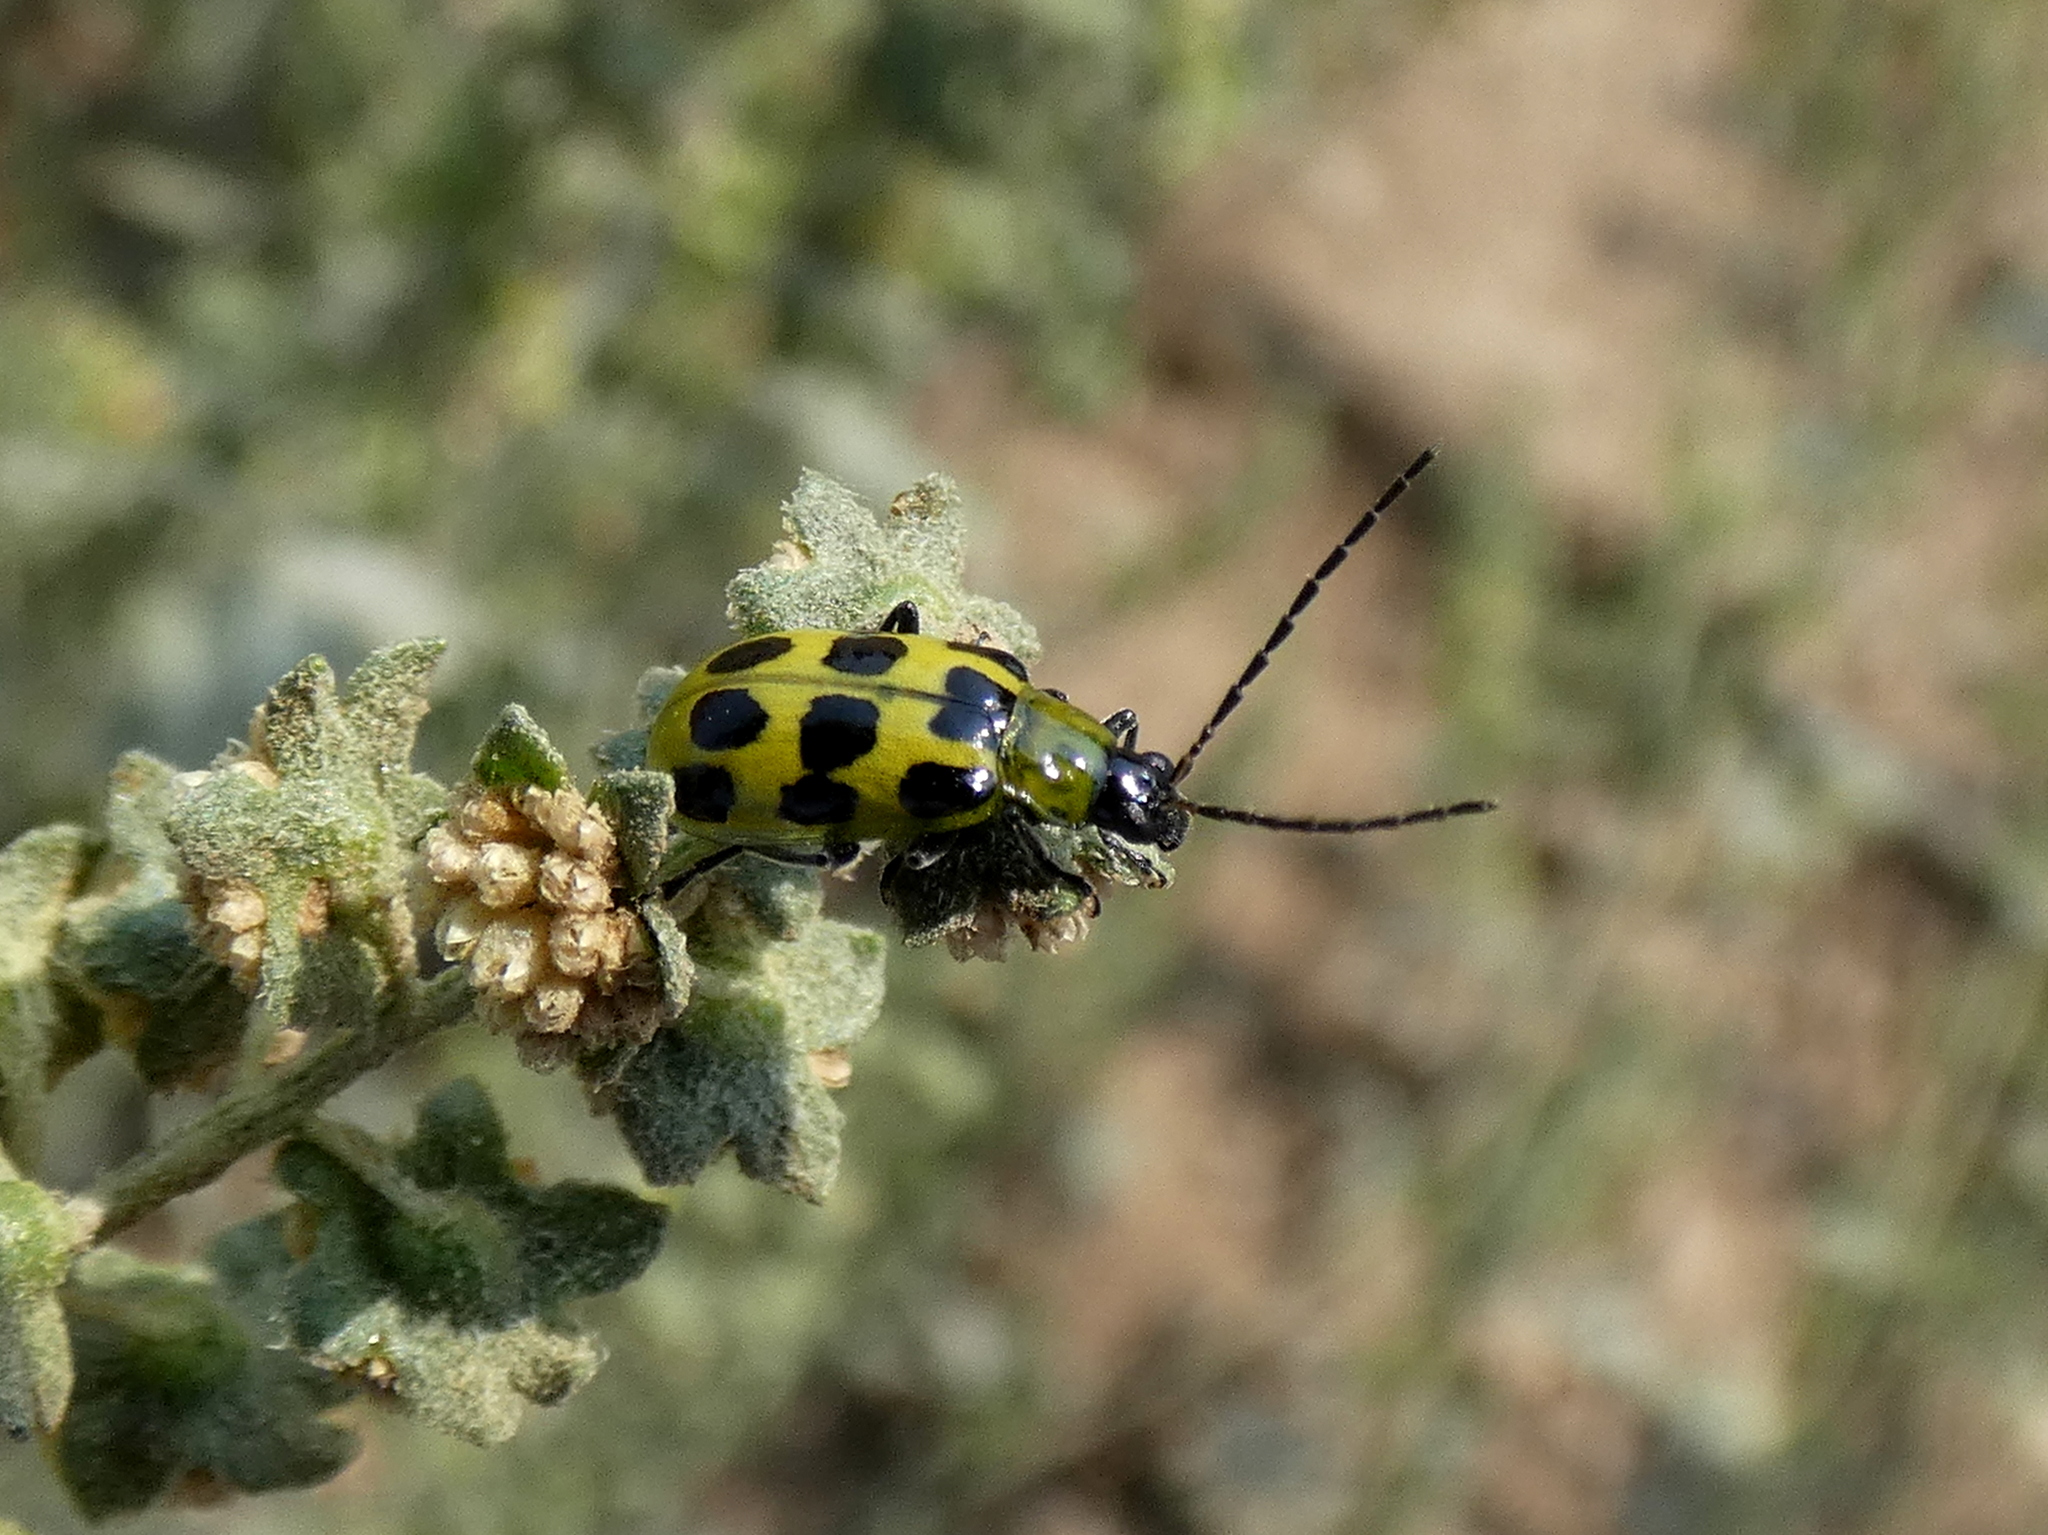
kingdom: Animalia
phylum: Arthropoda
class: Insecta
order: Coleoptera
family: Chrysomelidae
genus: Diabrotica
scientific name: Diabrotica undecimpunctata
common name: Spotted cucumber beetle
